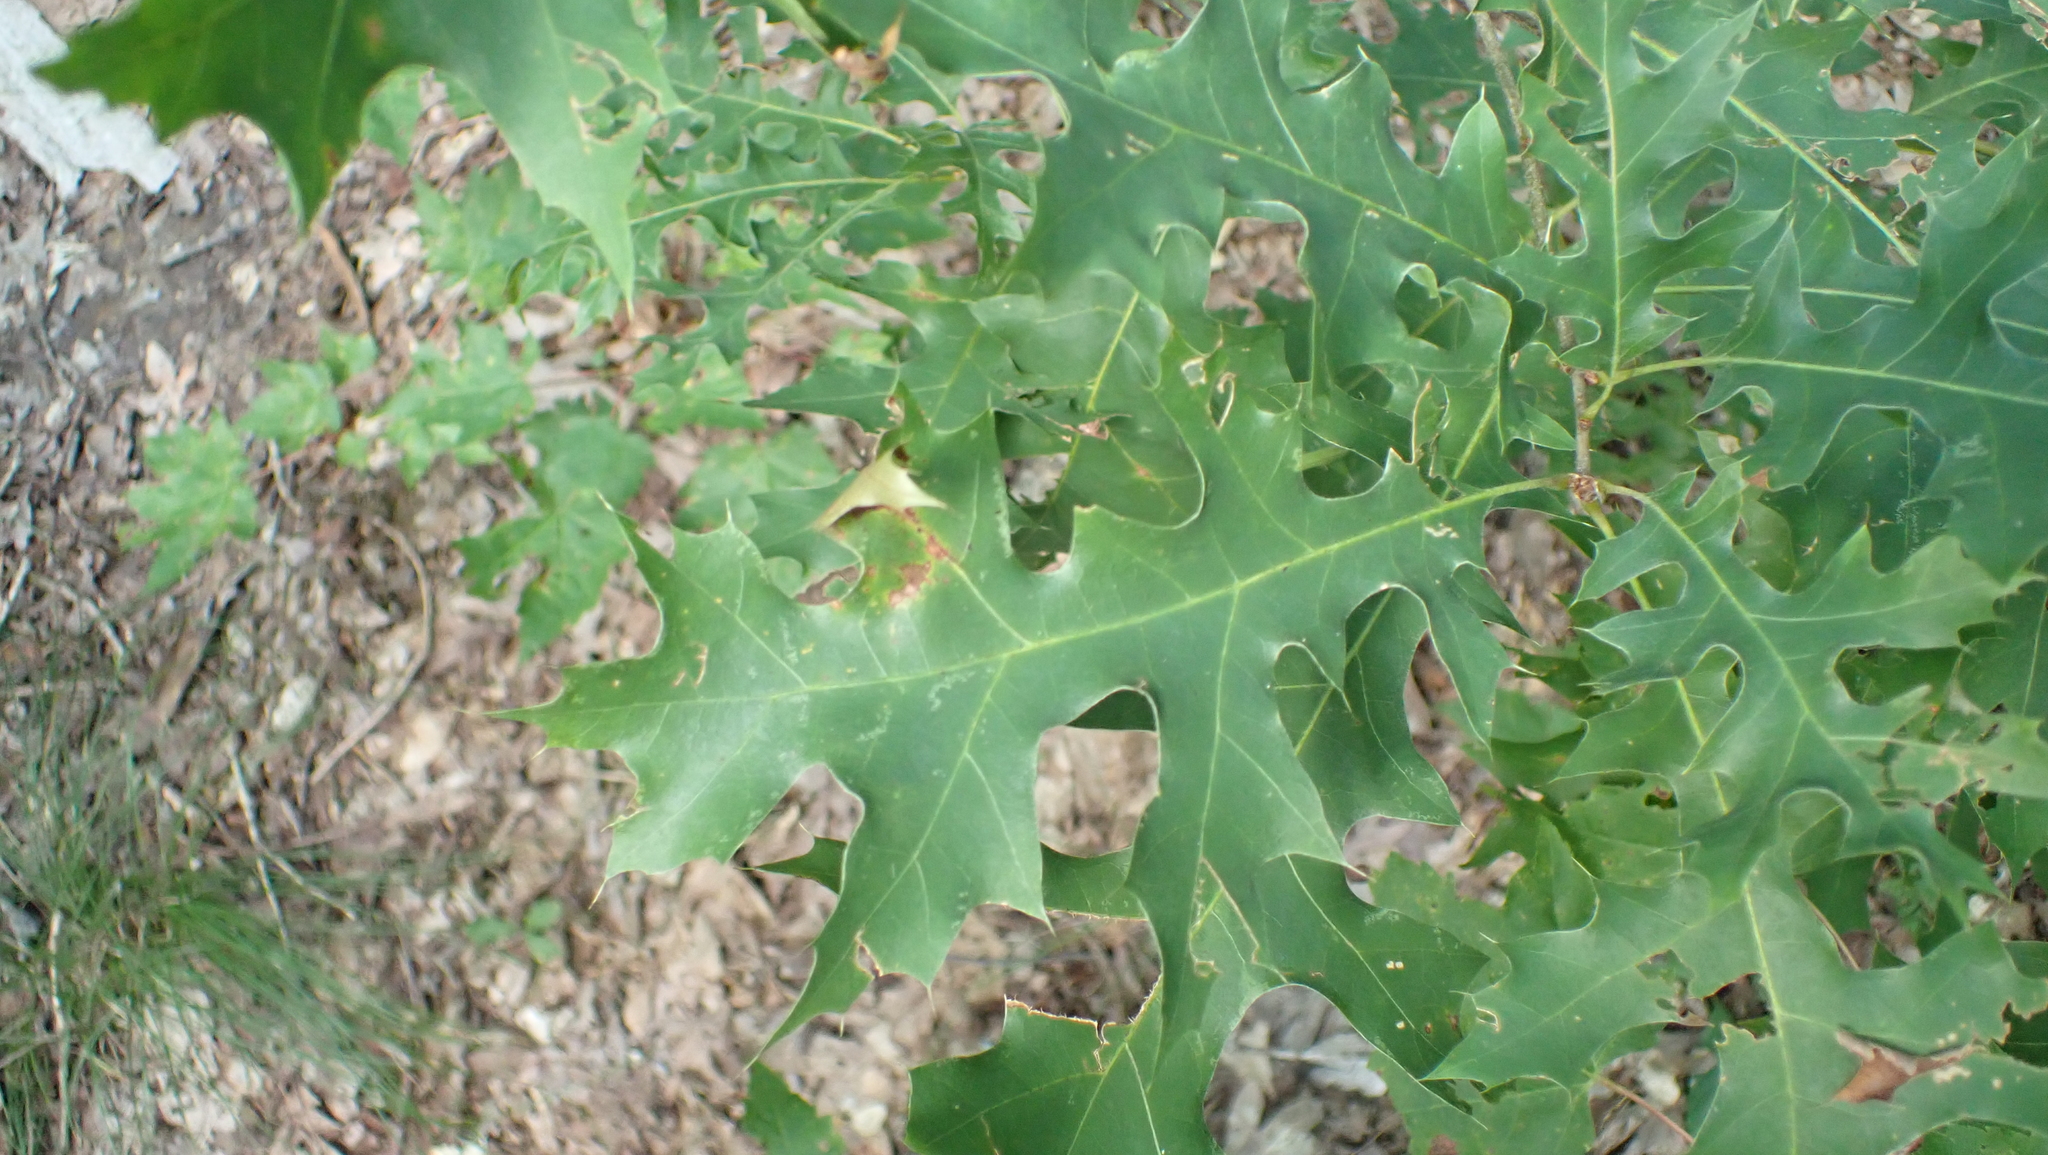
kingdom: Plantae
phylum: Tracheophyta
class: Magnoliopsida
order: Fagales
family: Fagaceae
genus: Quercus
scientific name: Quercus shumardii
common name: Shumard oak
